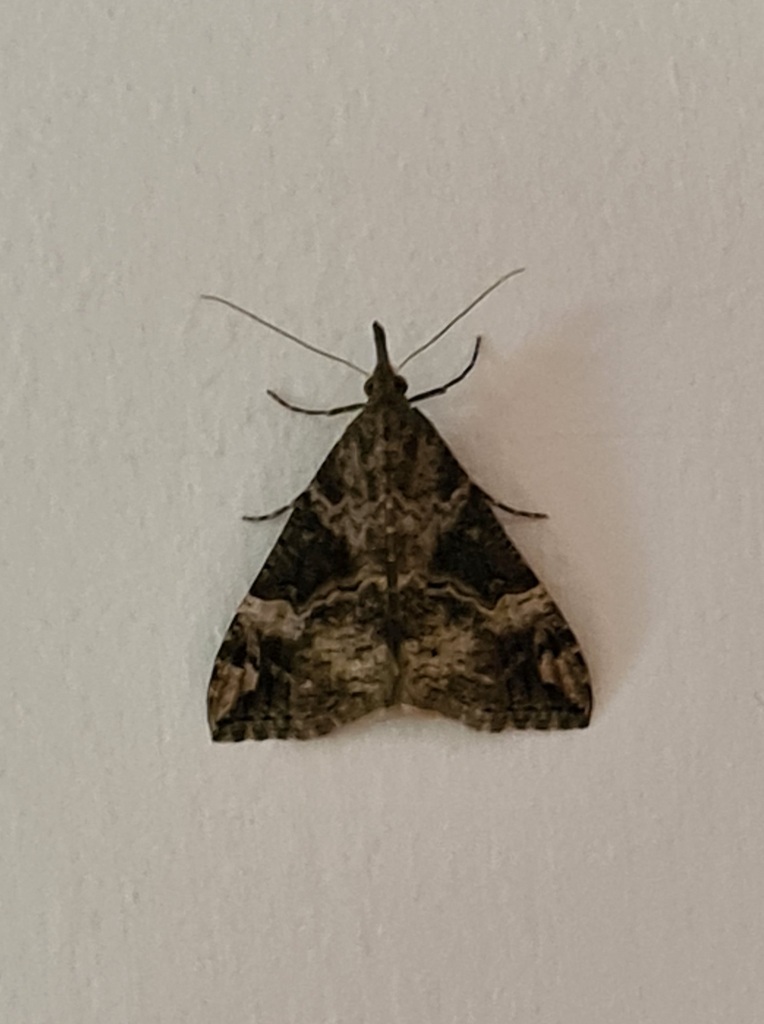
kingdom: Animalia
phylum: Arthropoda
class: Insecta
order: Lepidoptera
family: Erebidae
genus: Hypena
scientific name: Hypena obsitalis
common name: Bloxworth snout
